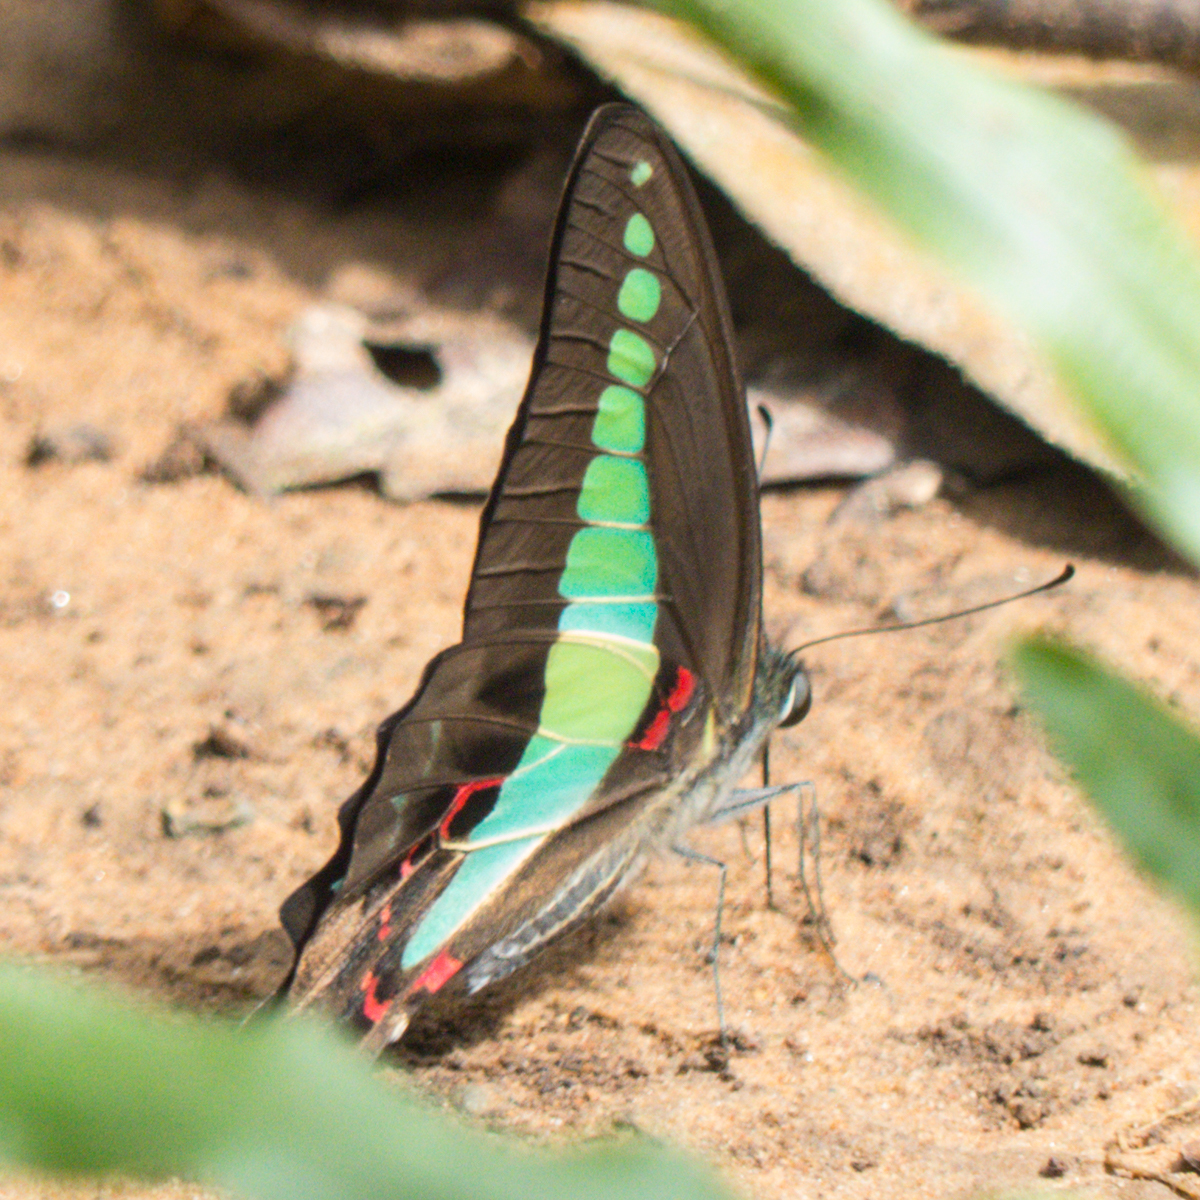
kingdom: Fungi
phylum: Ascomycota
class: Sordariomycetes
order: Microascales
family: Microascaceae
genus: Graphium
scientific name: Graphium sarpedon
